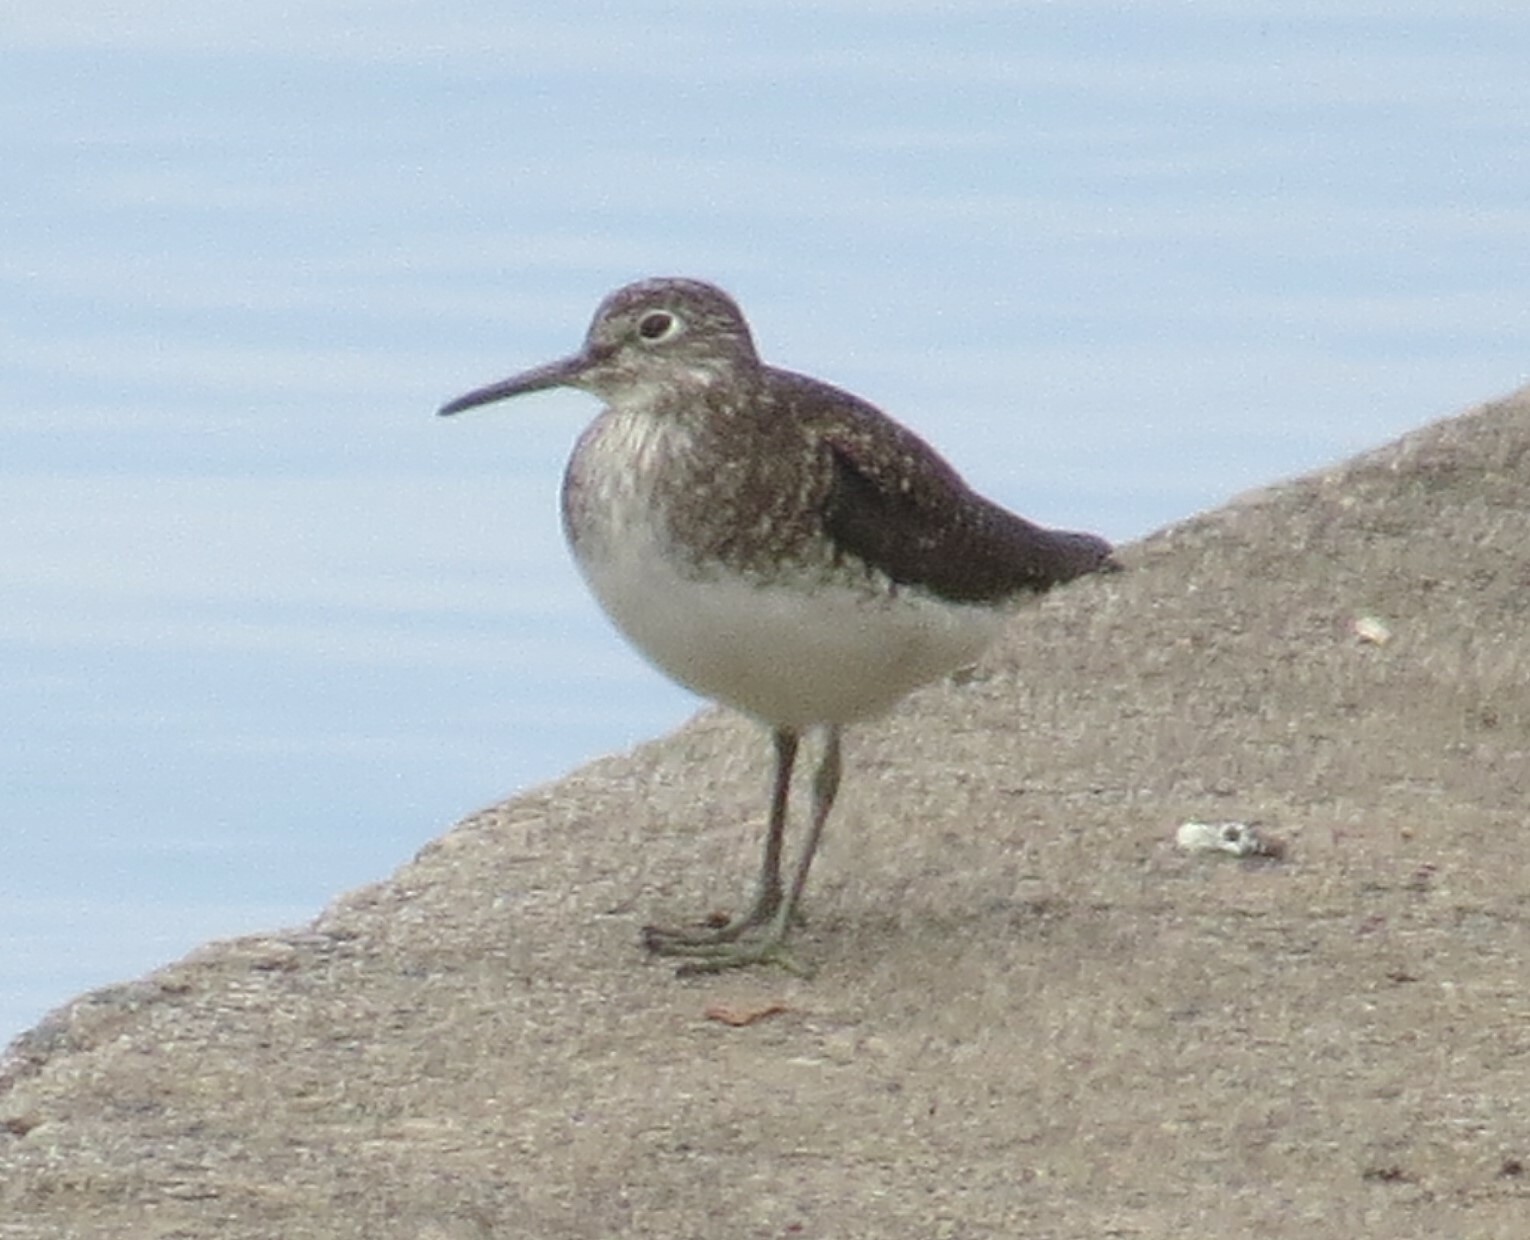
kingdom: Animalia
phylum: Chordata
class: Aves
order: Charadriiformes
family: Scolopacidae
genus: Tringa
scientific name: Tringa solitaria
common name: Solitary sandpiper
